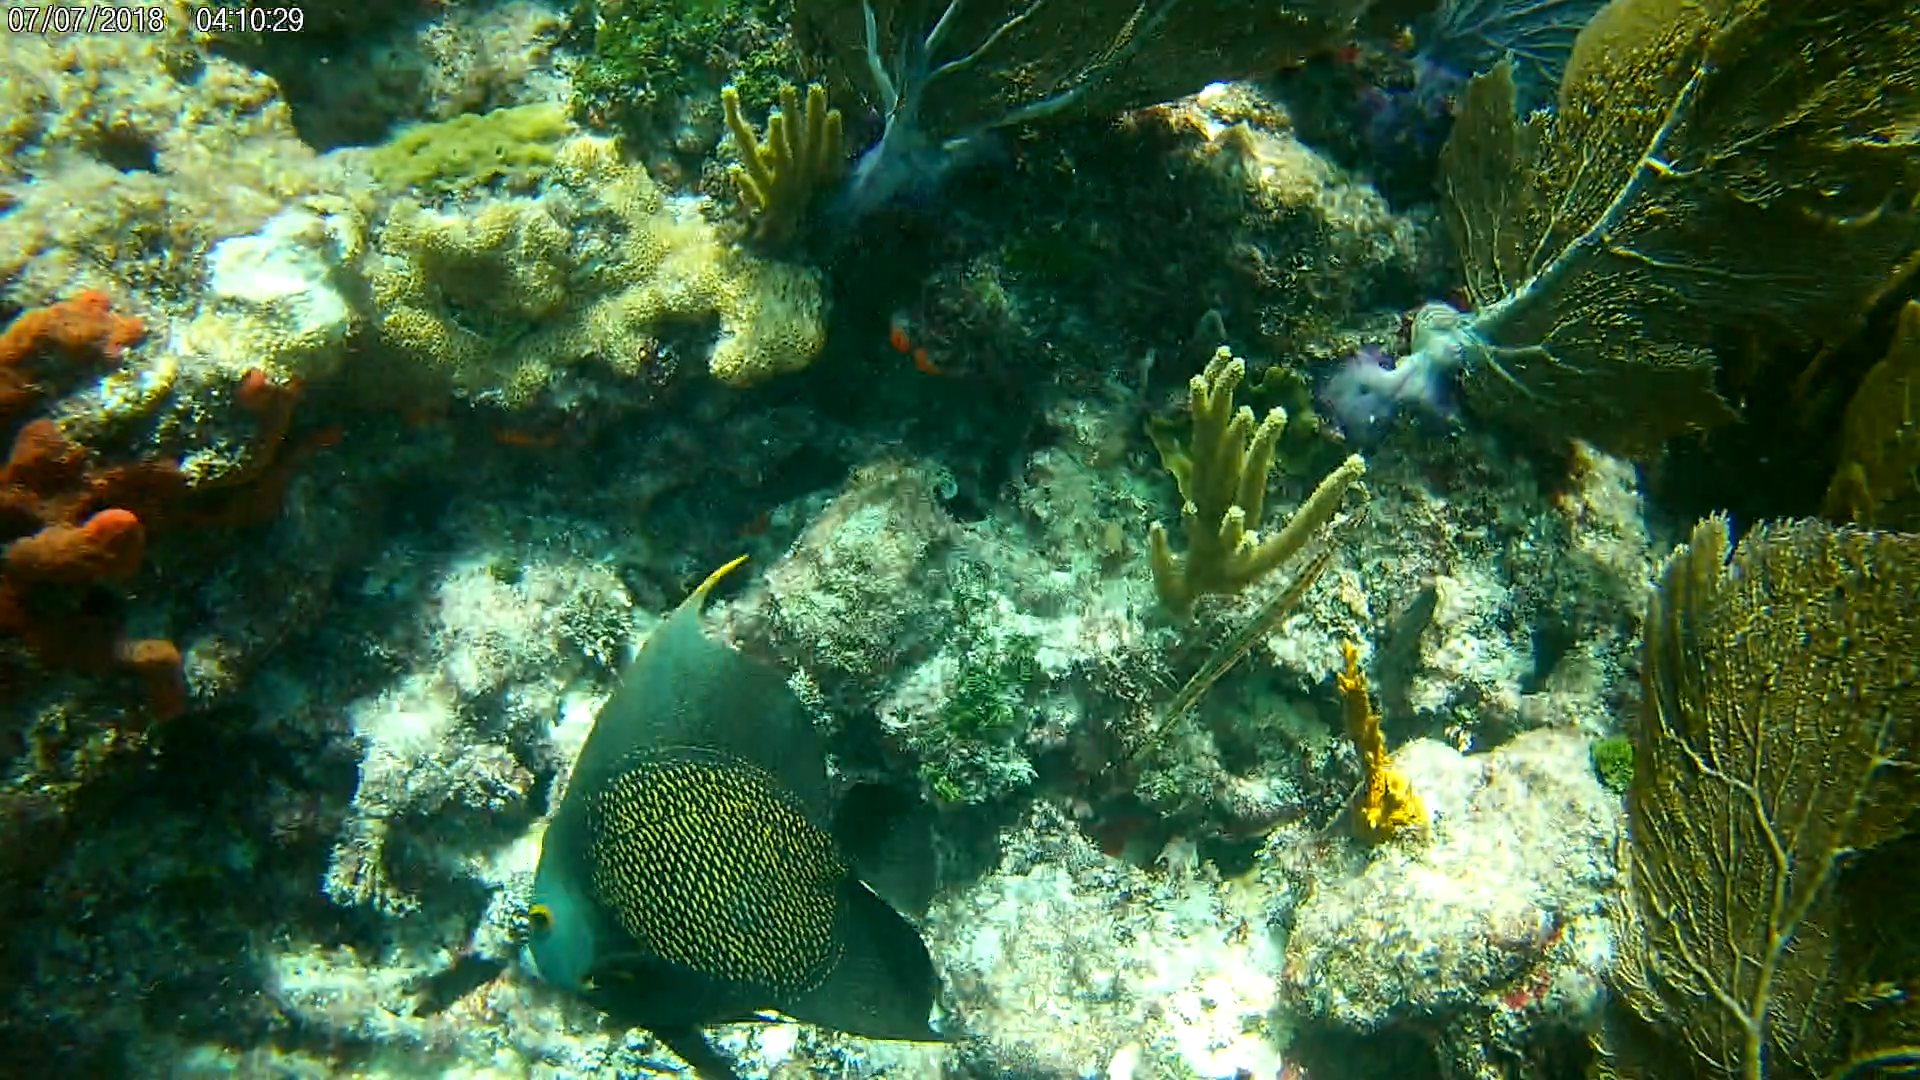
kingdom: Animalia
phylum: Chordata
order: Perciformes
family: Pomacanthidae
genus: Pomacanthus
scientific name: Pomacanthus paru
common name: French angelfish
